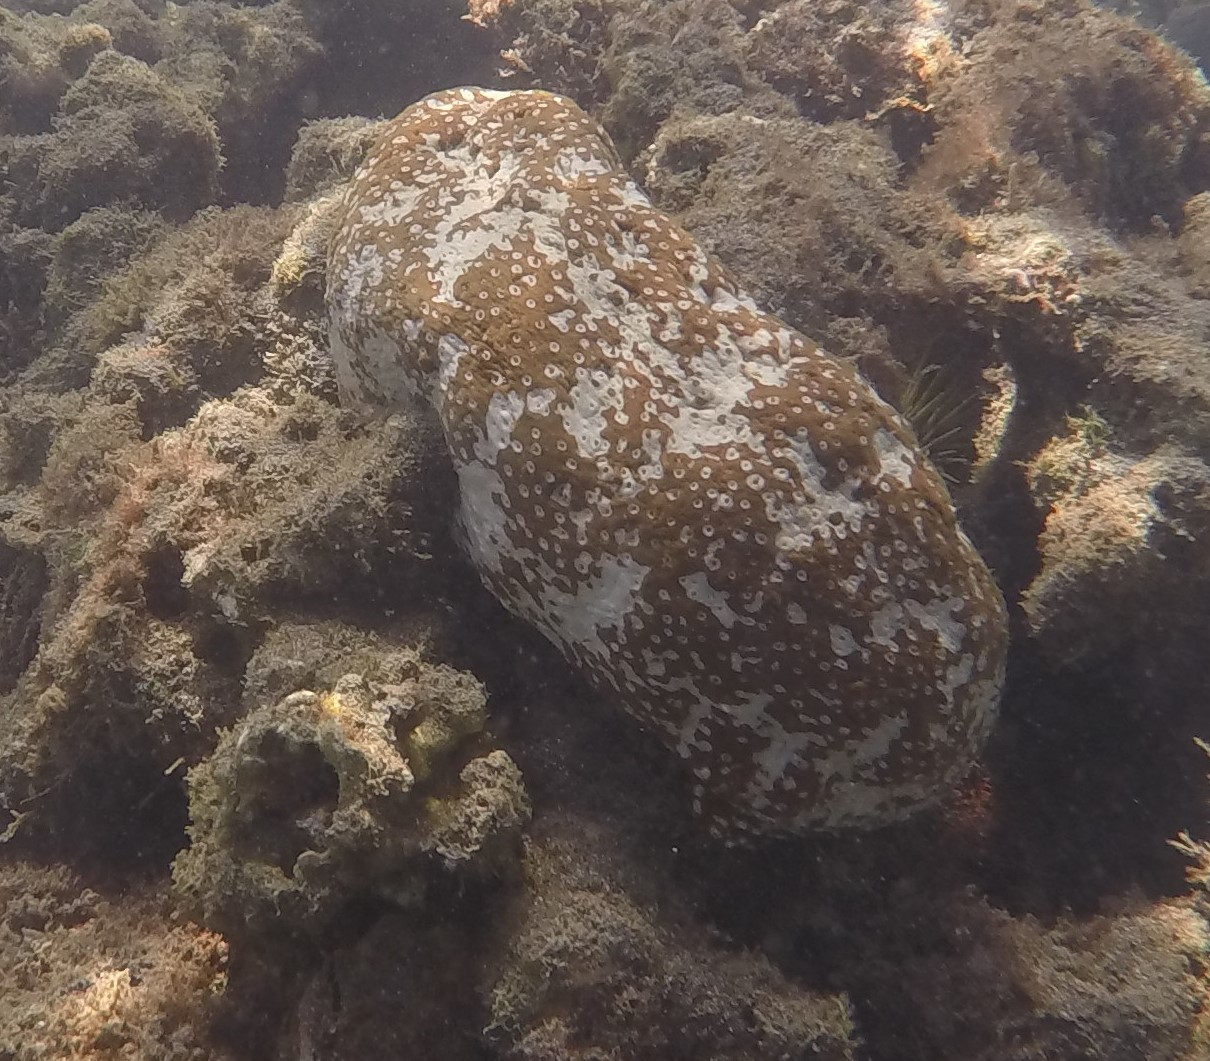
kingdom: Animalia
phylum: Echinodermata
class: Holothuroidea
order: Holothuriida
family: Holothuriidae
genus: Actinopyga
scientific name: Actinopyga varians
